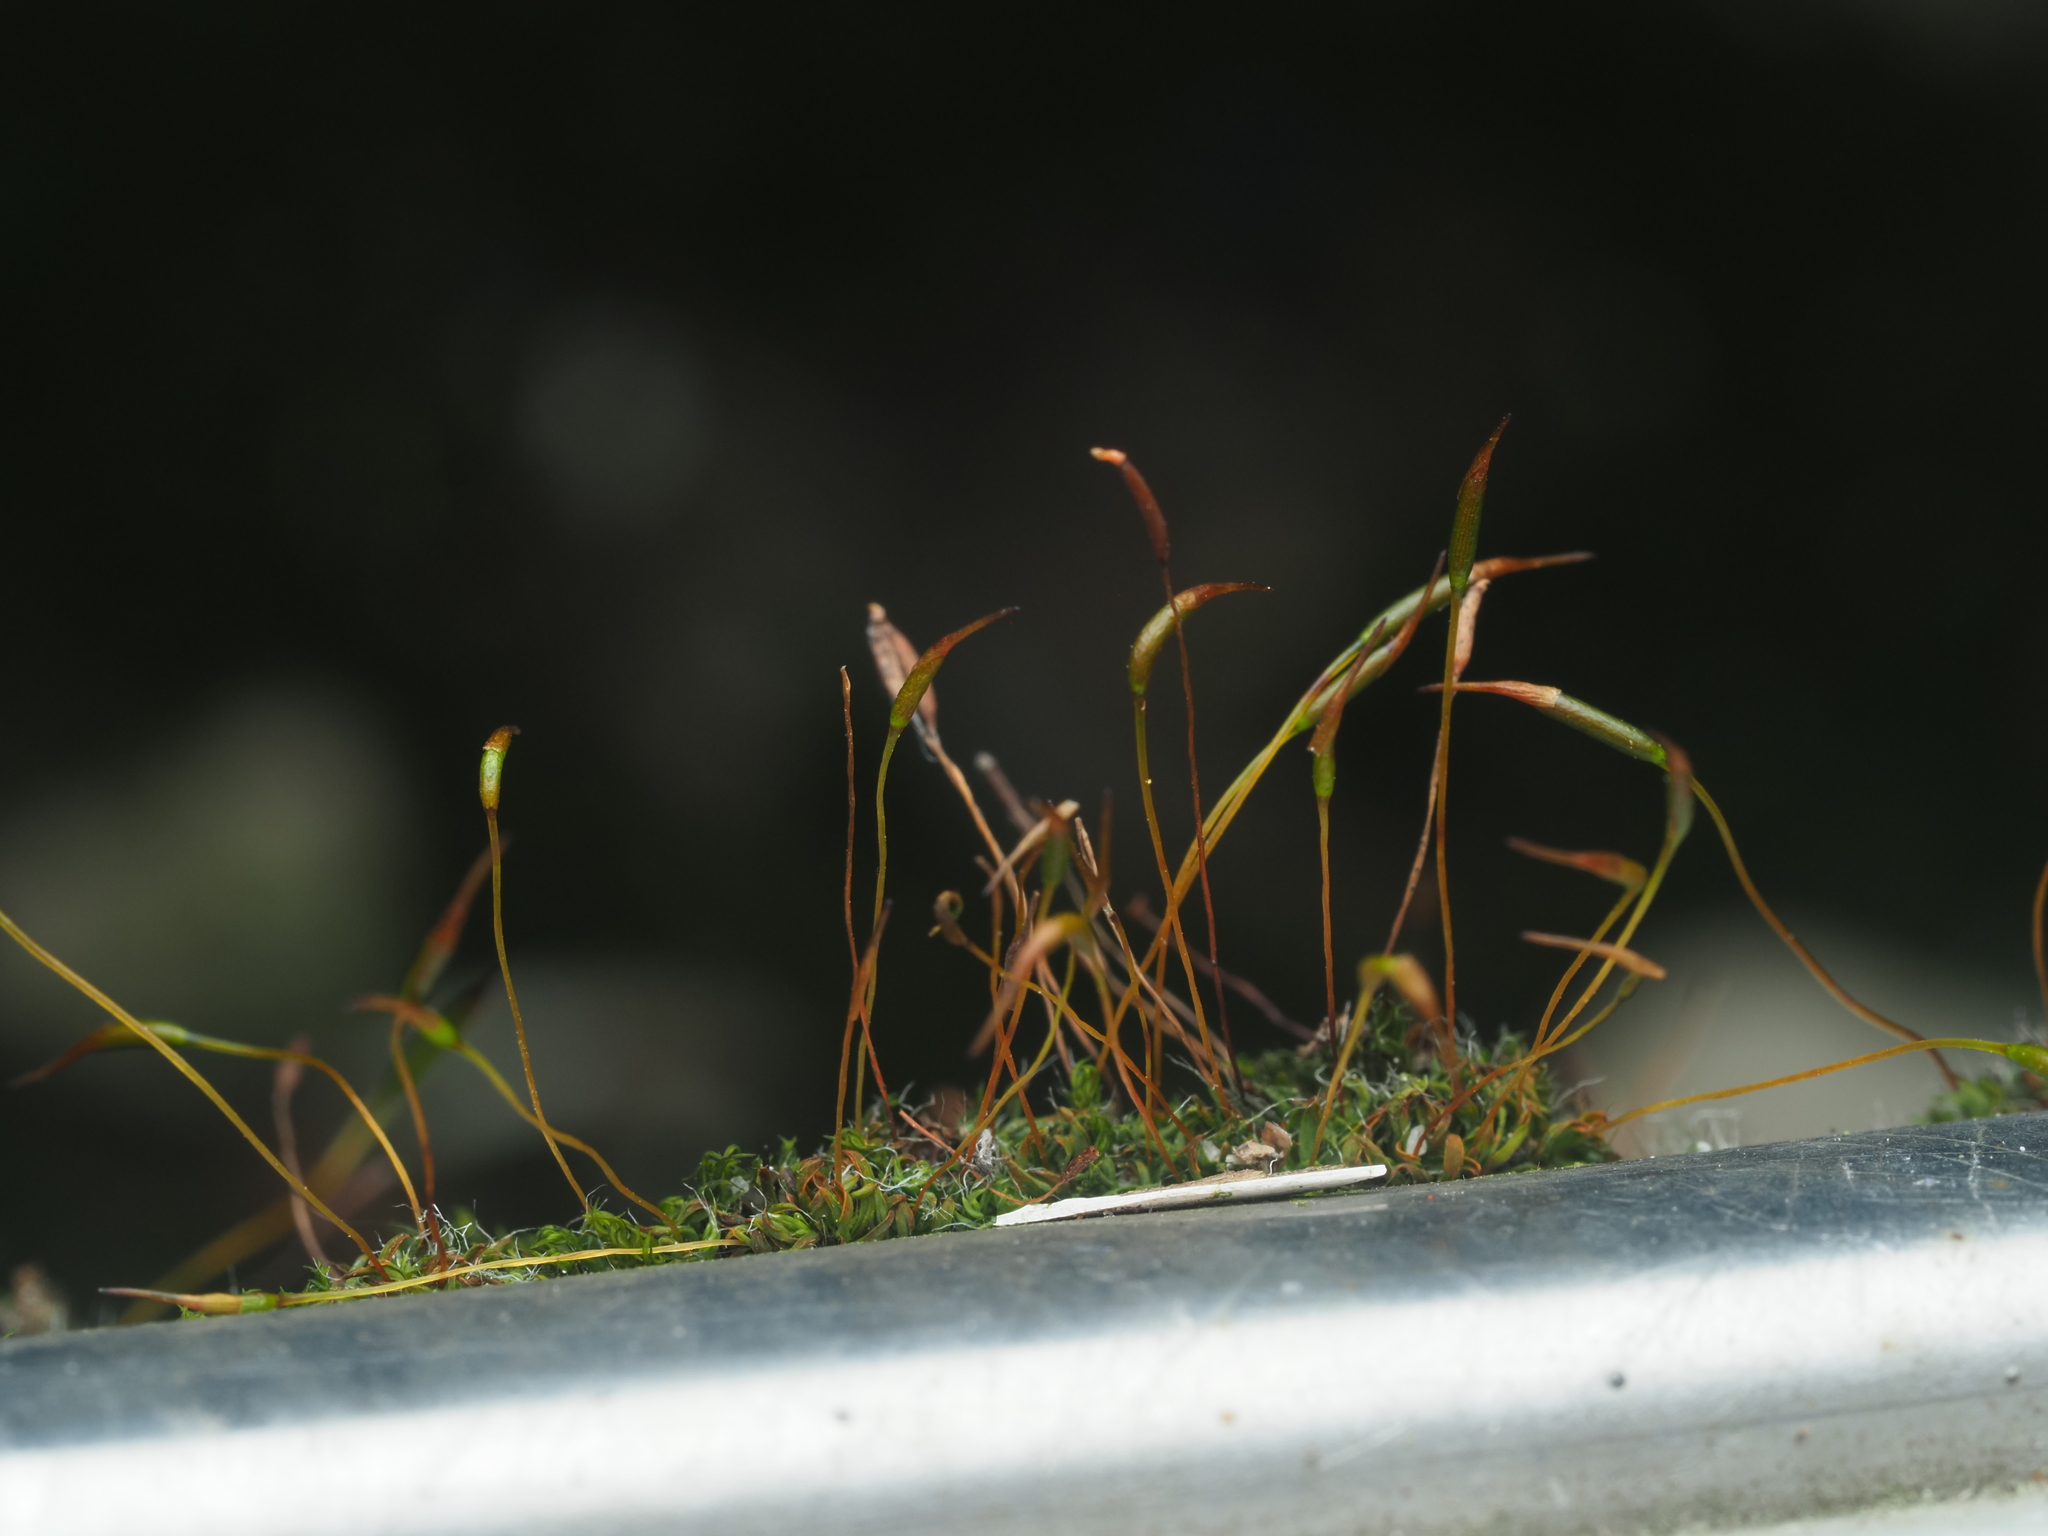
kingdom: Plantae
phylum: Bryophyta
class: Bryopsida
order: Pottiales
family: Pottiaceae
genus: Tortula
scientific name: Tortula muralis
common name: Wall screw-moss
